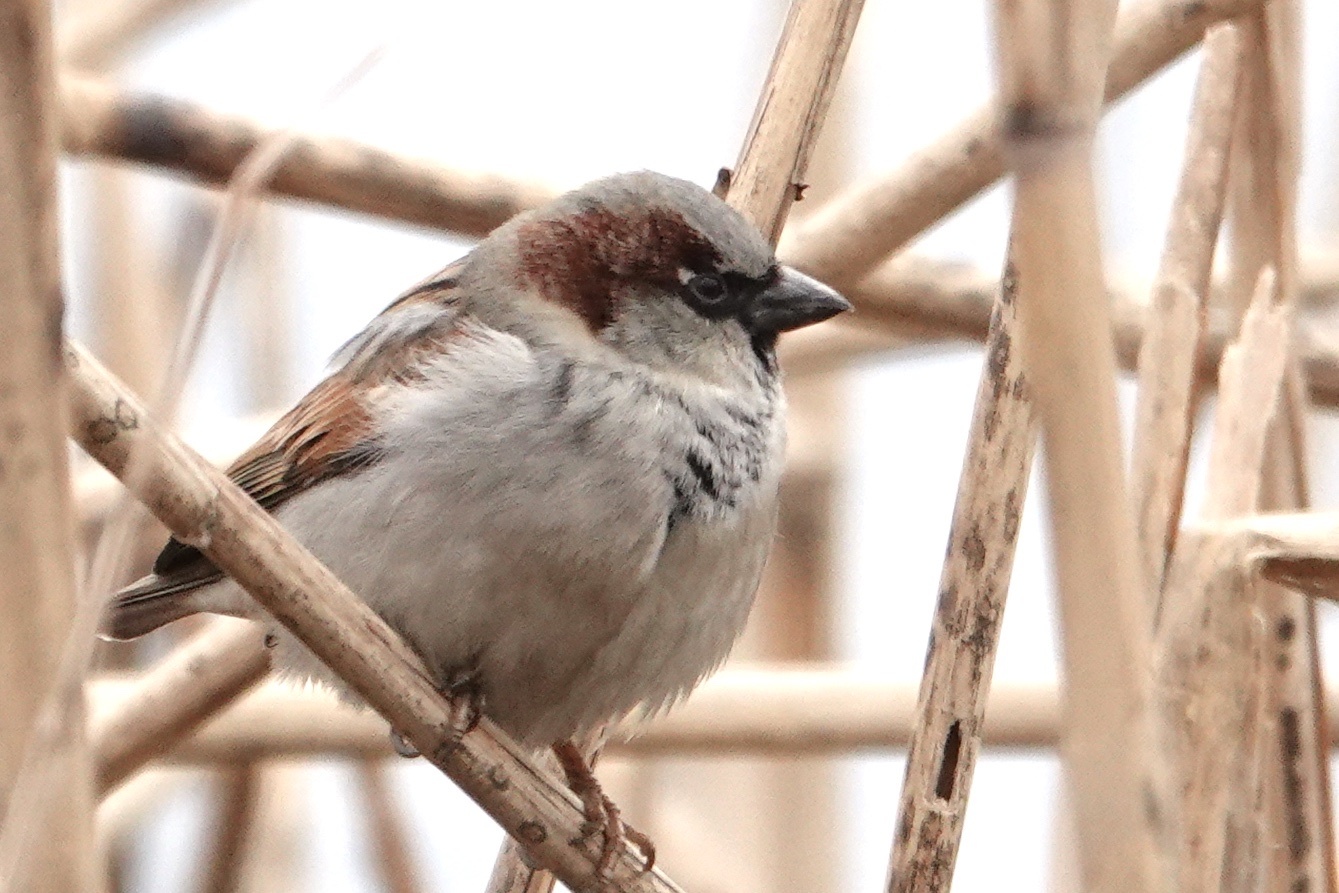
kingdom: Animalia
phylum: Chordata
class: Aves
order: Passeriformes
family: Passeridae
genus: Passer
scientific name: Passer domesticus
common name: House sparrow
